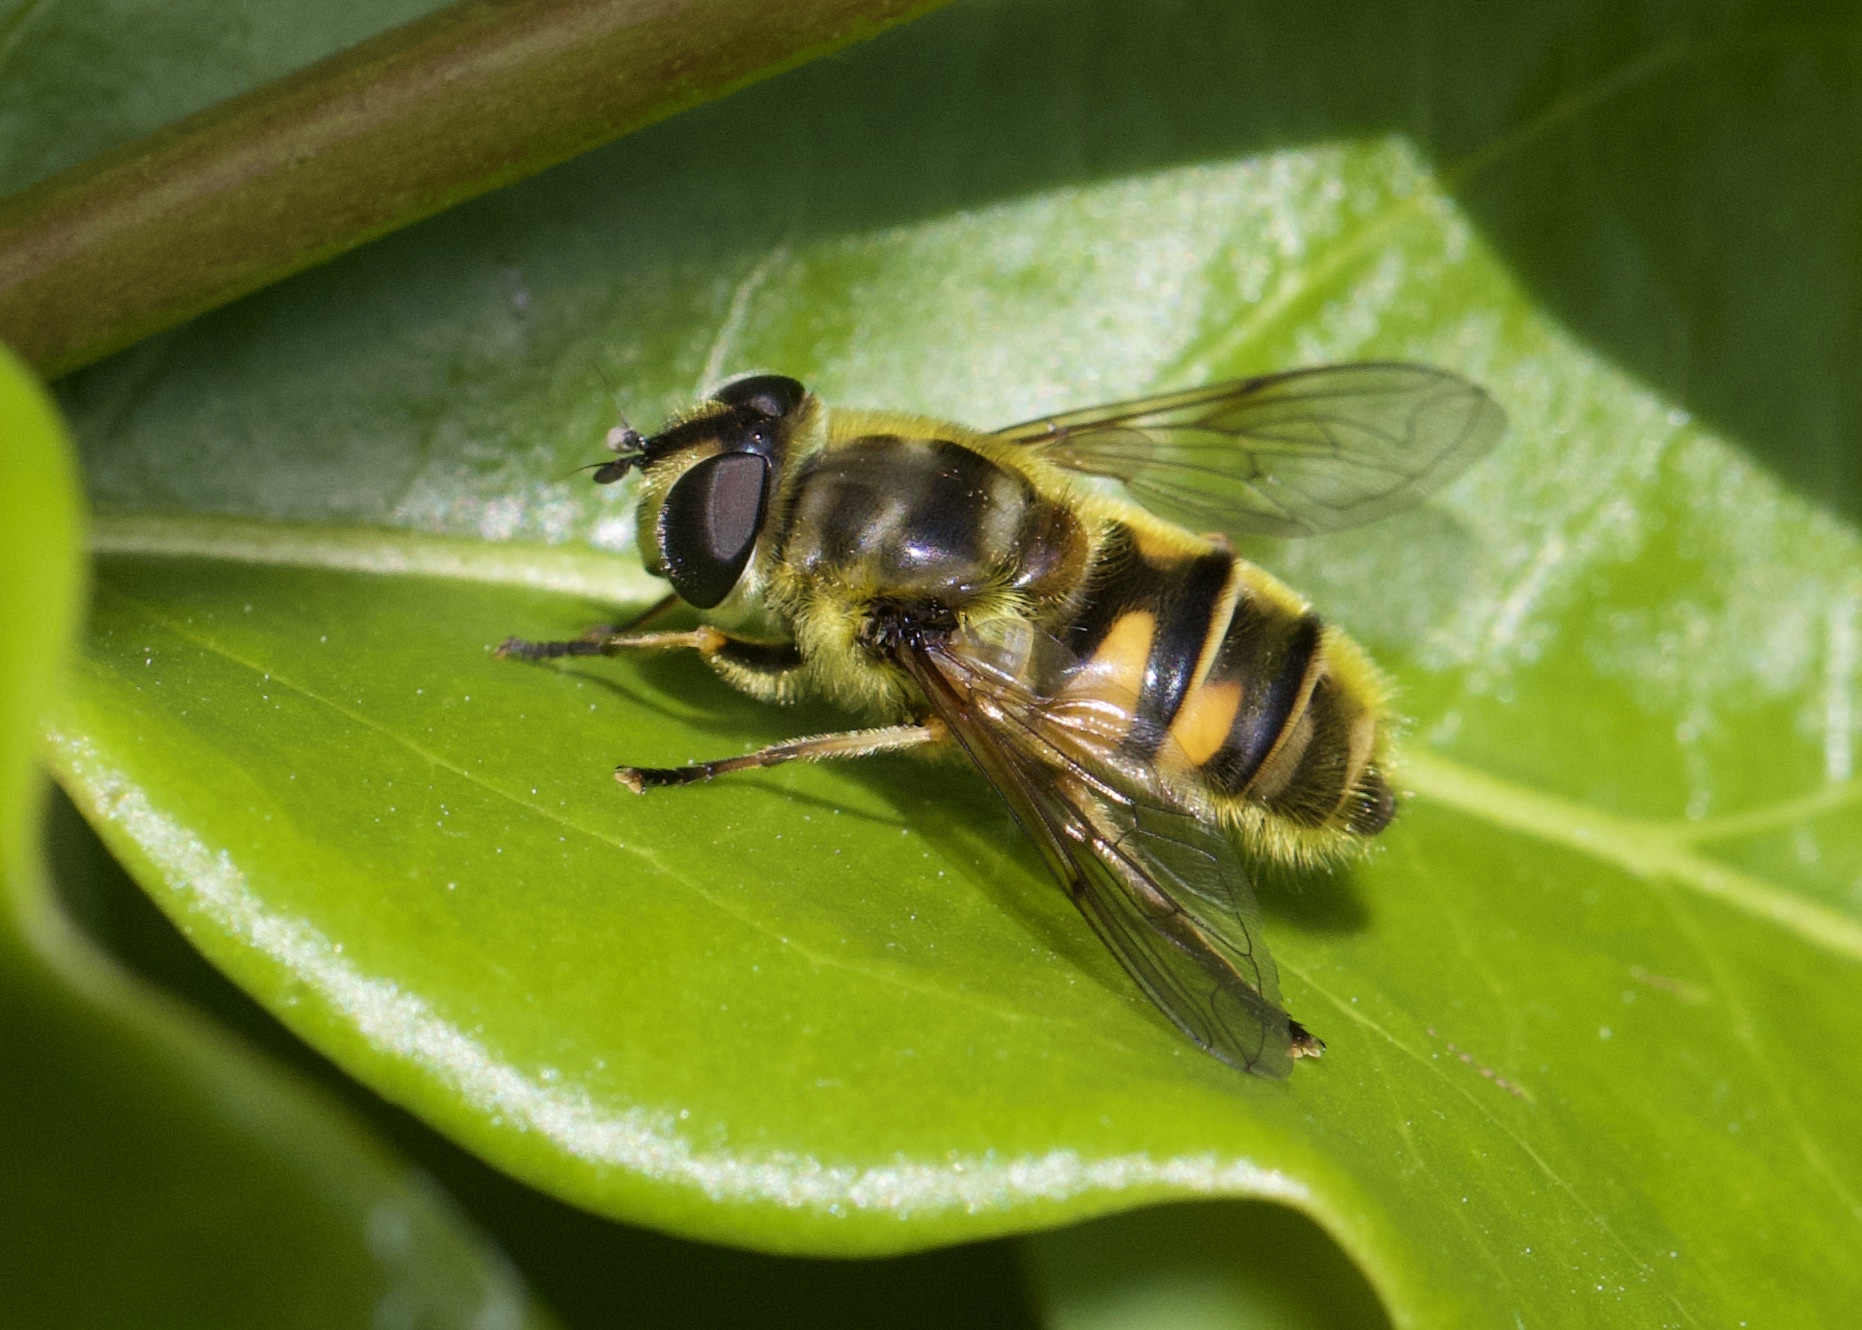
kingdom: Animalia
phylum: Arthropoda
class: Insecta
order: Diptera
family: Syrphidae
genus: Myathropa
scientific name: Myathropa florea
